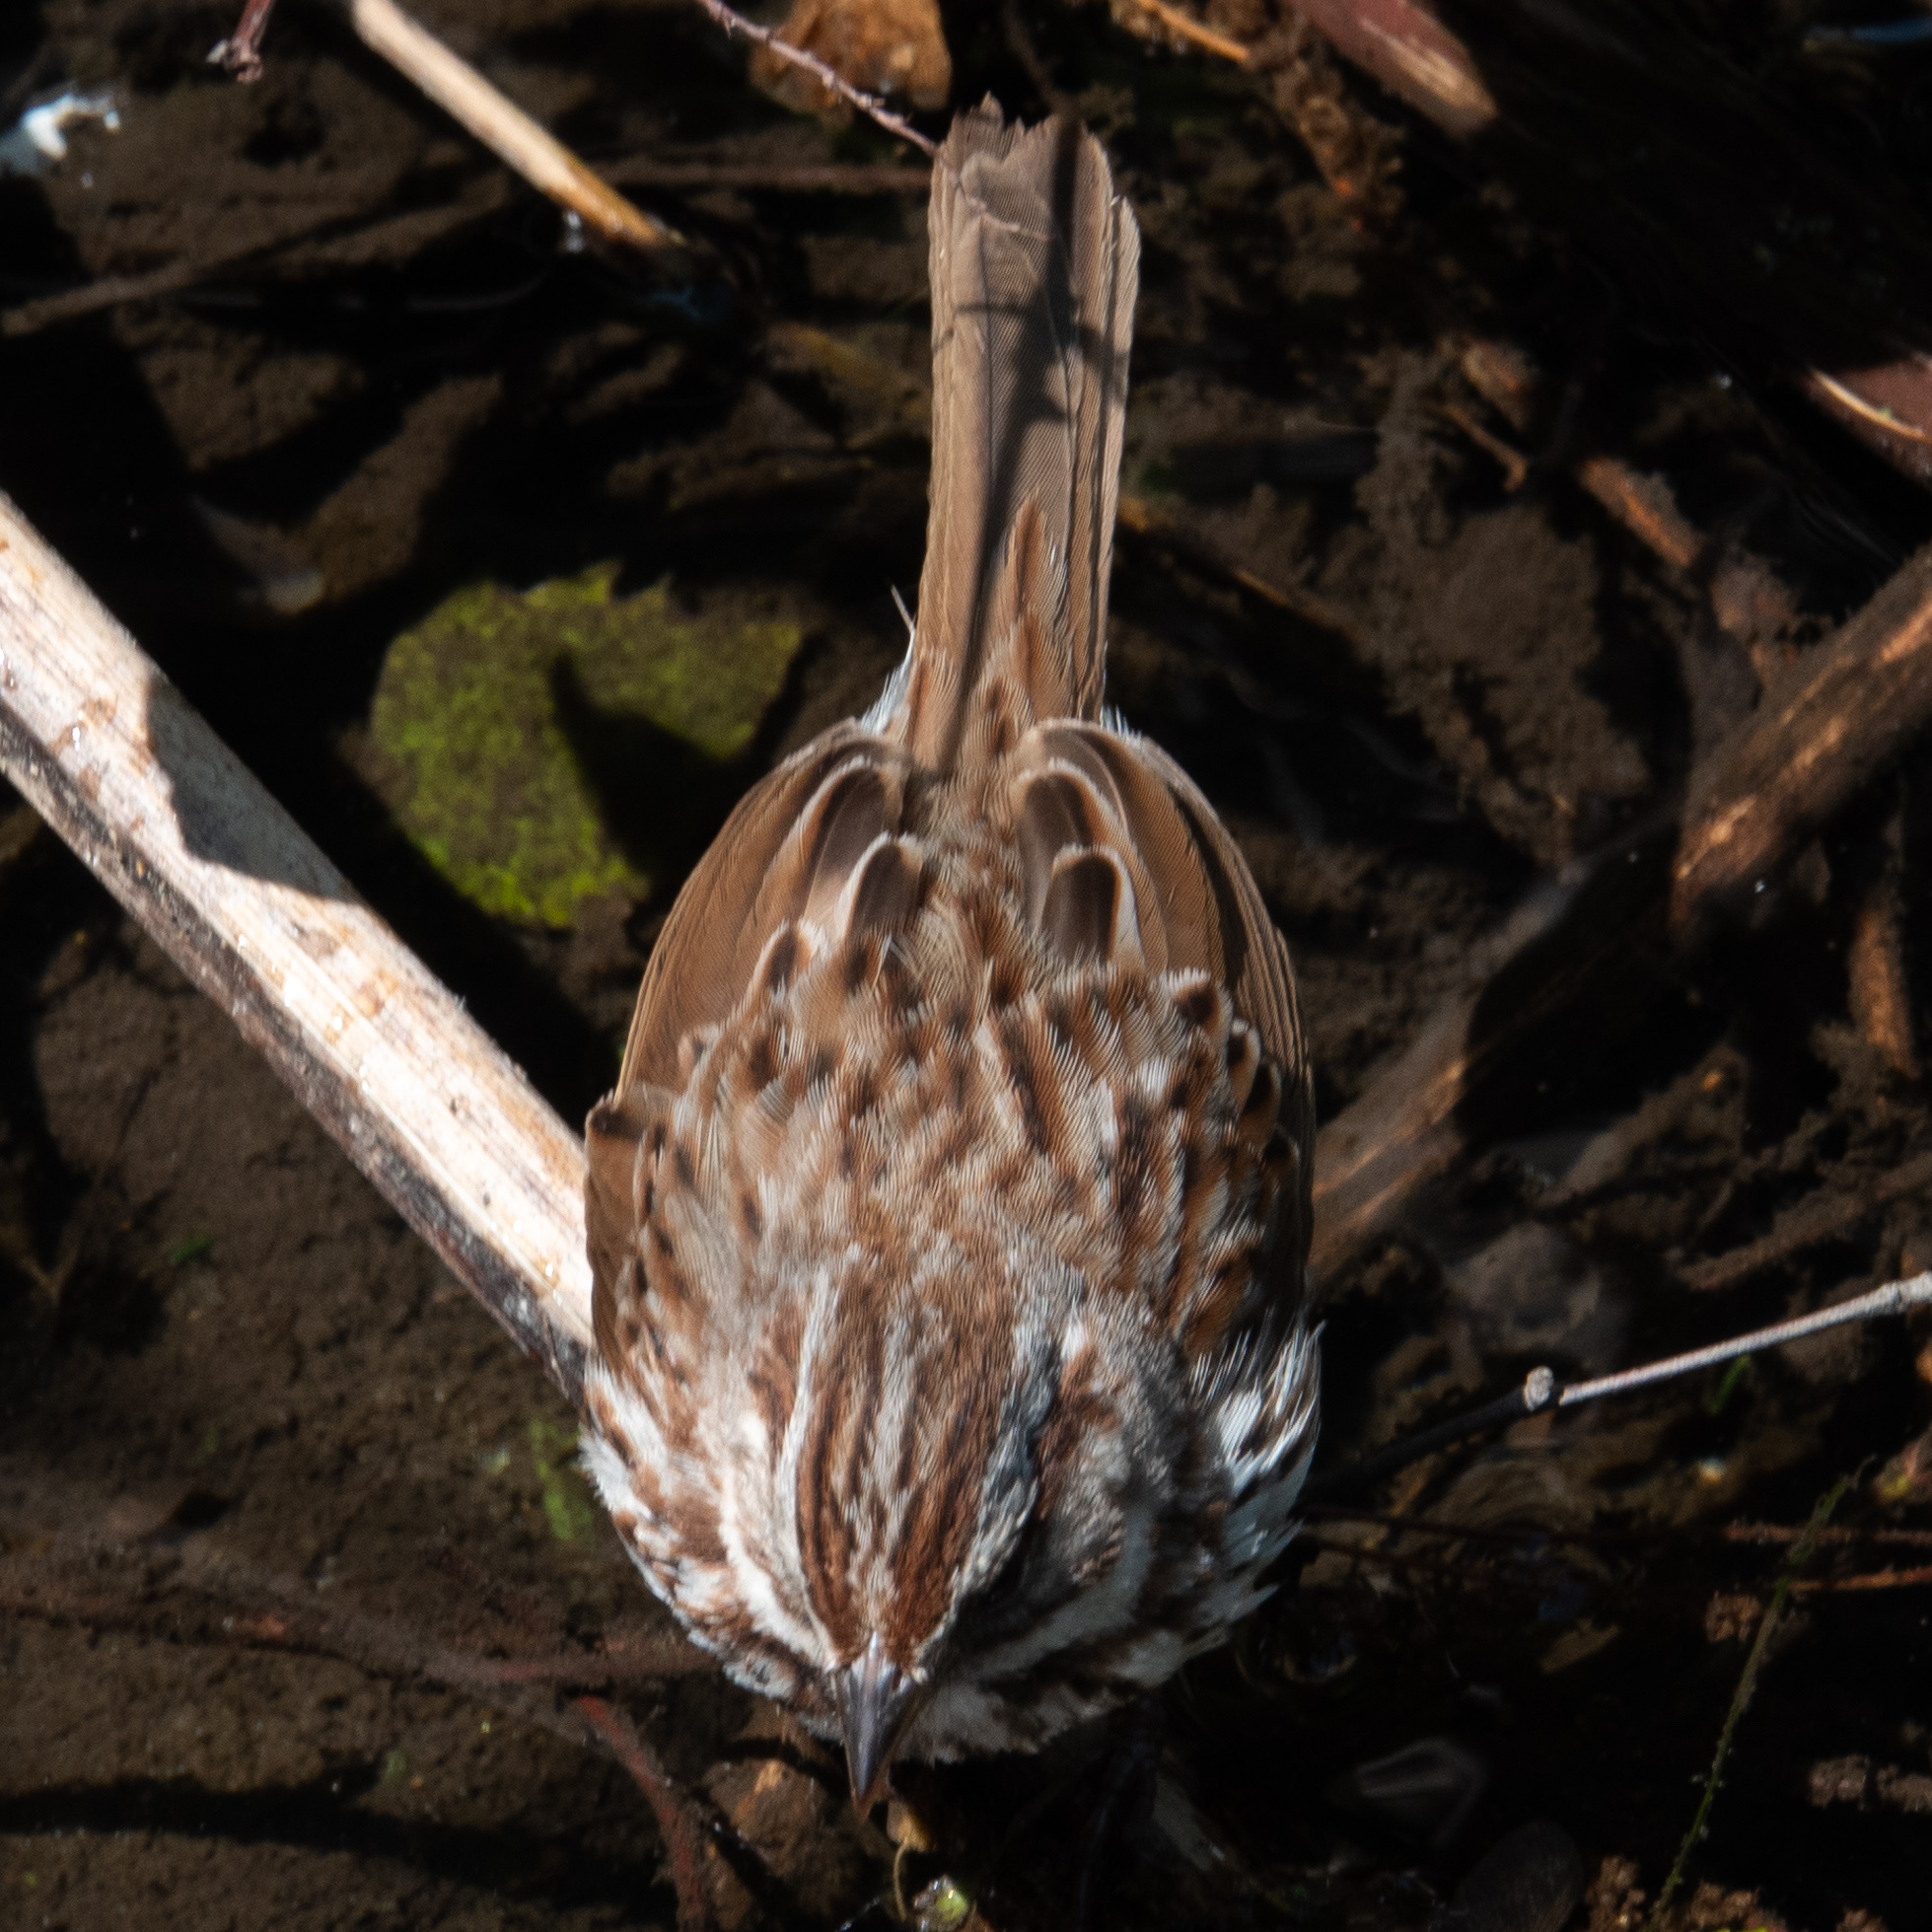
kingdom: Animalia
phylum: Chordata
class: Aves
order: Passeriformes
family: Passerellidae
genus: Melospiza
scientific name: Melospiza melodia
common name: Song sparrow
